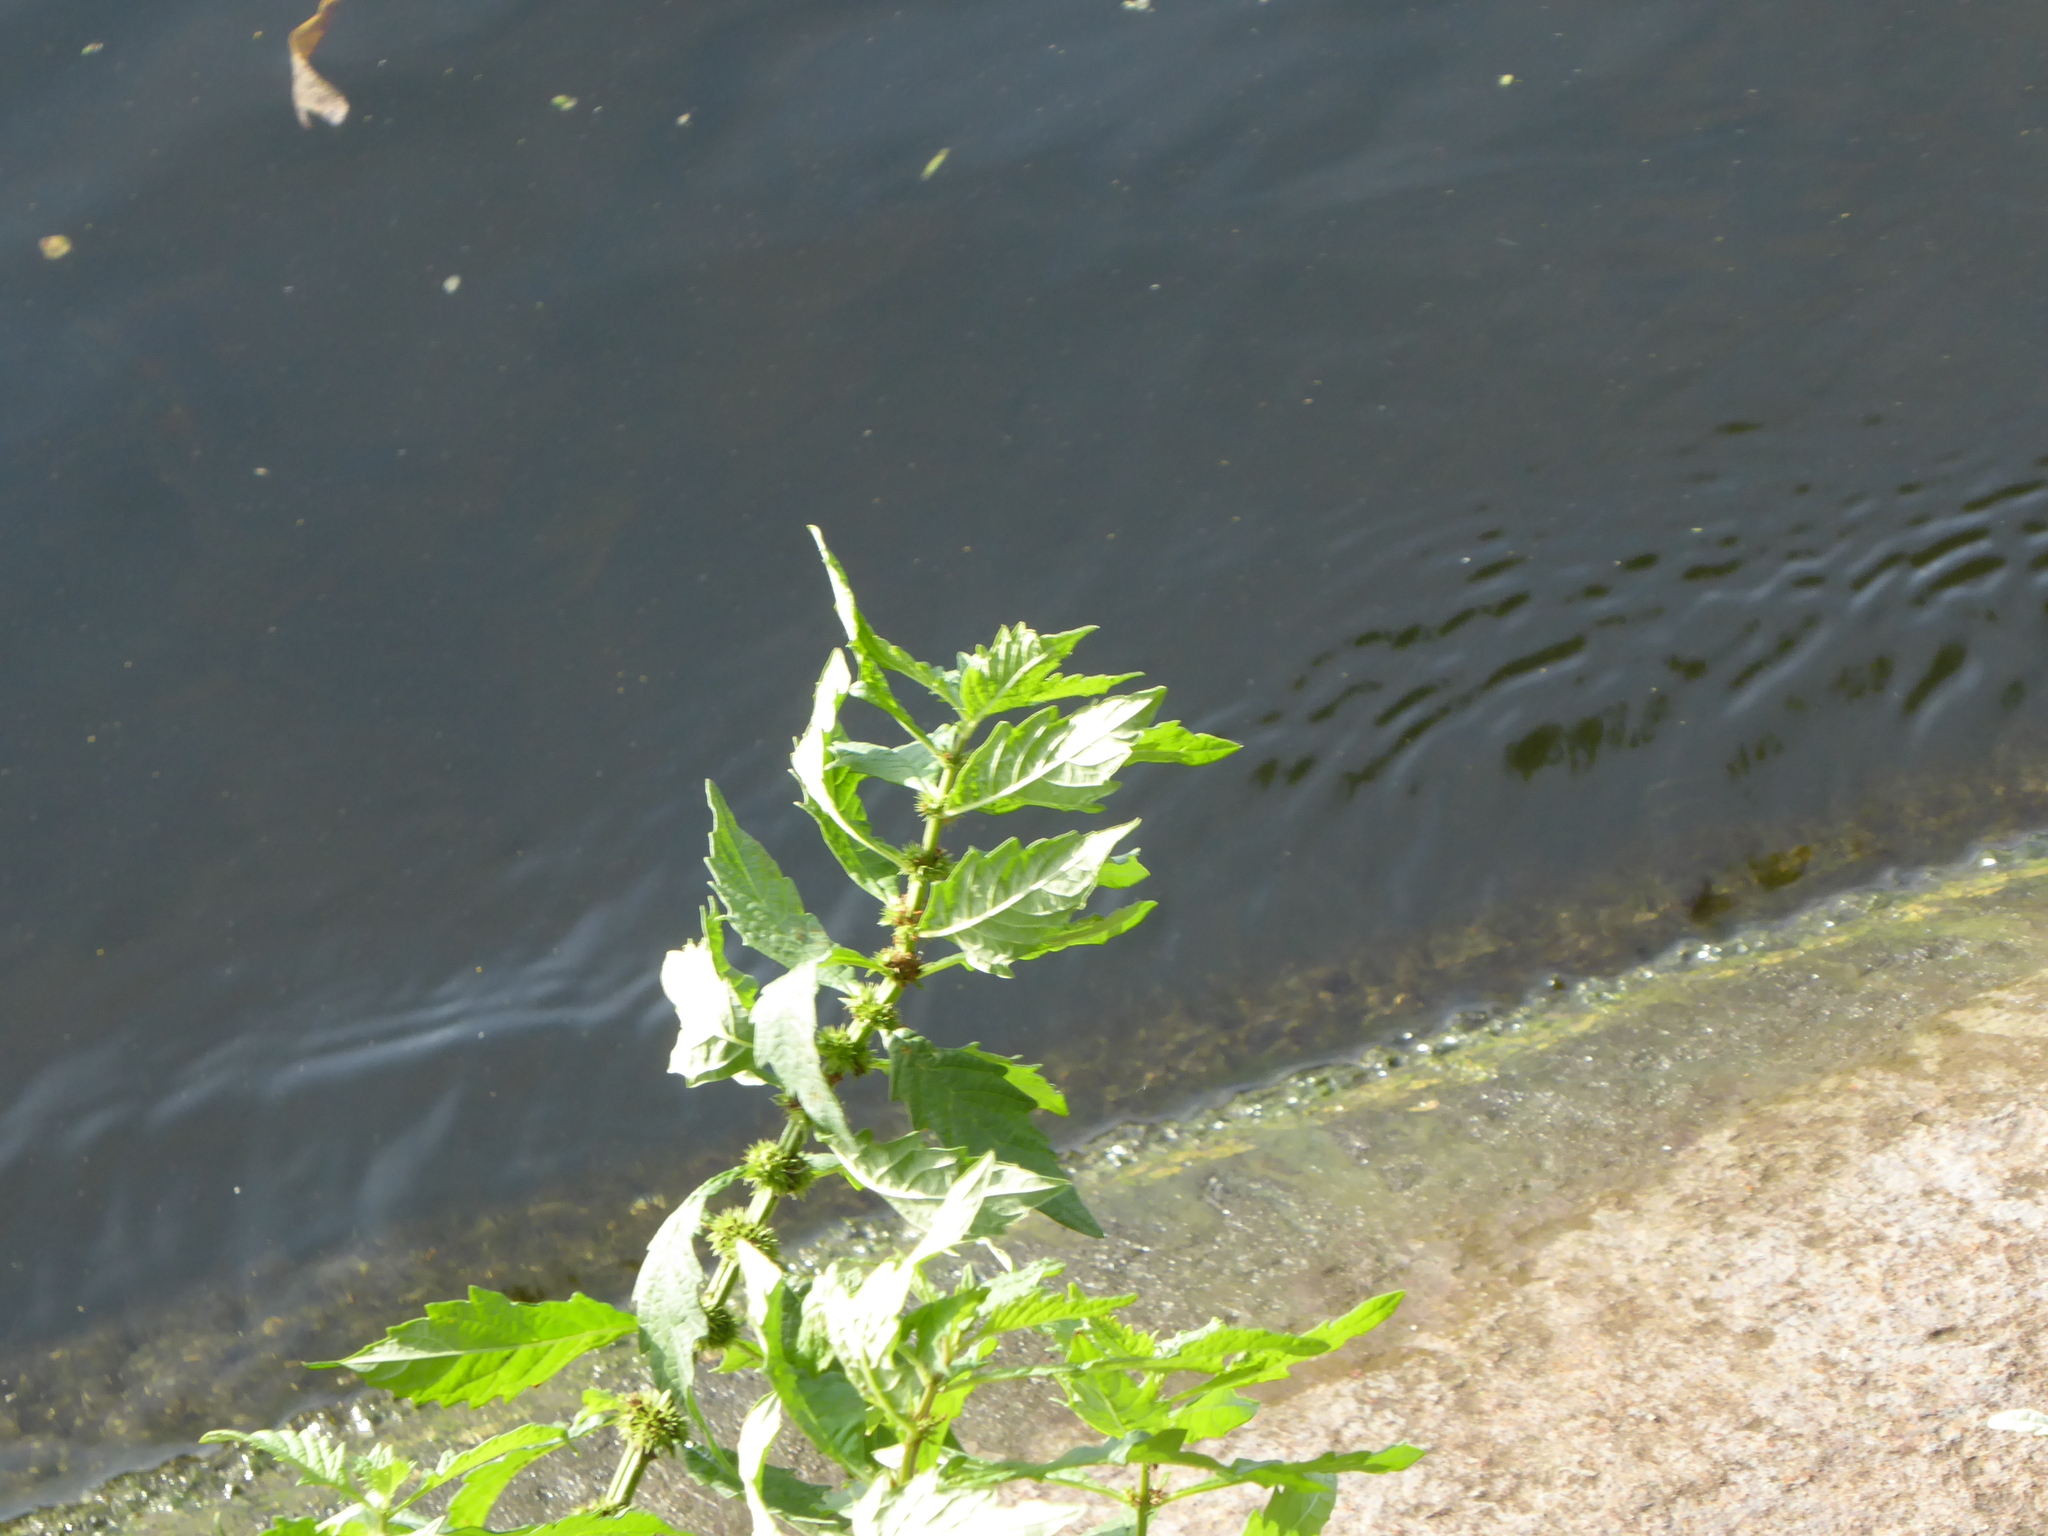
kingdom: Plantae
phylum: Tracheophyta
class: Magnoliopsida
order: Lamiales
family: Lamiaceae
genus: Lycopus
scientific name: Lycopus europaeus
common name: European bugleweed
